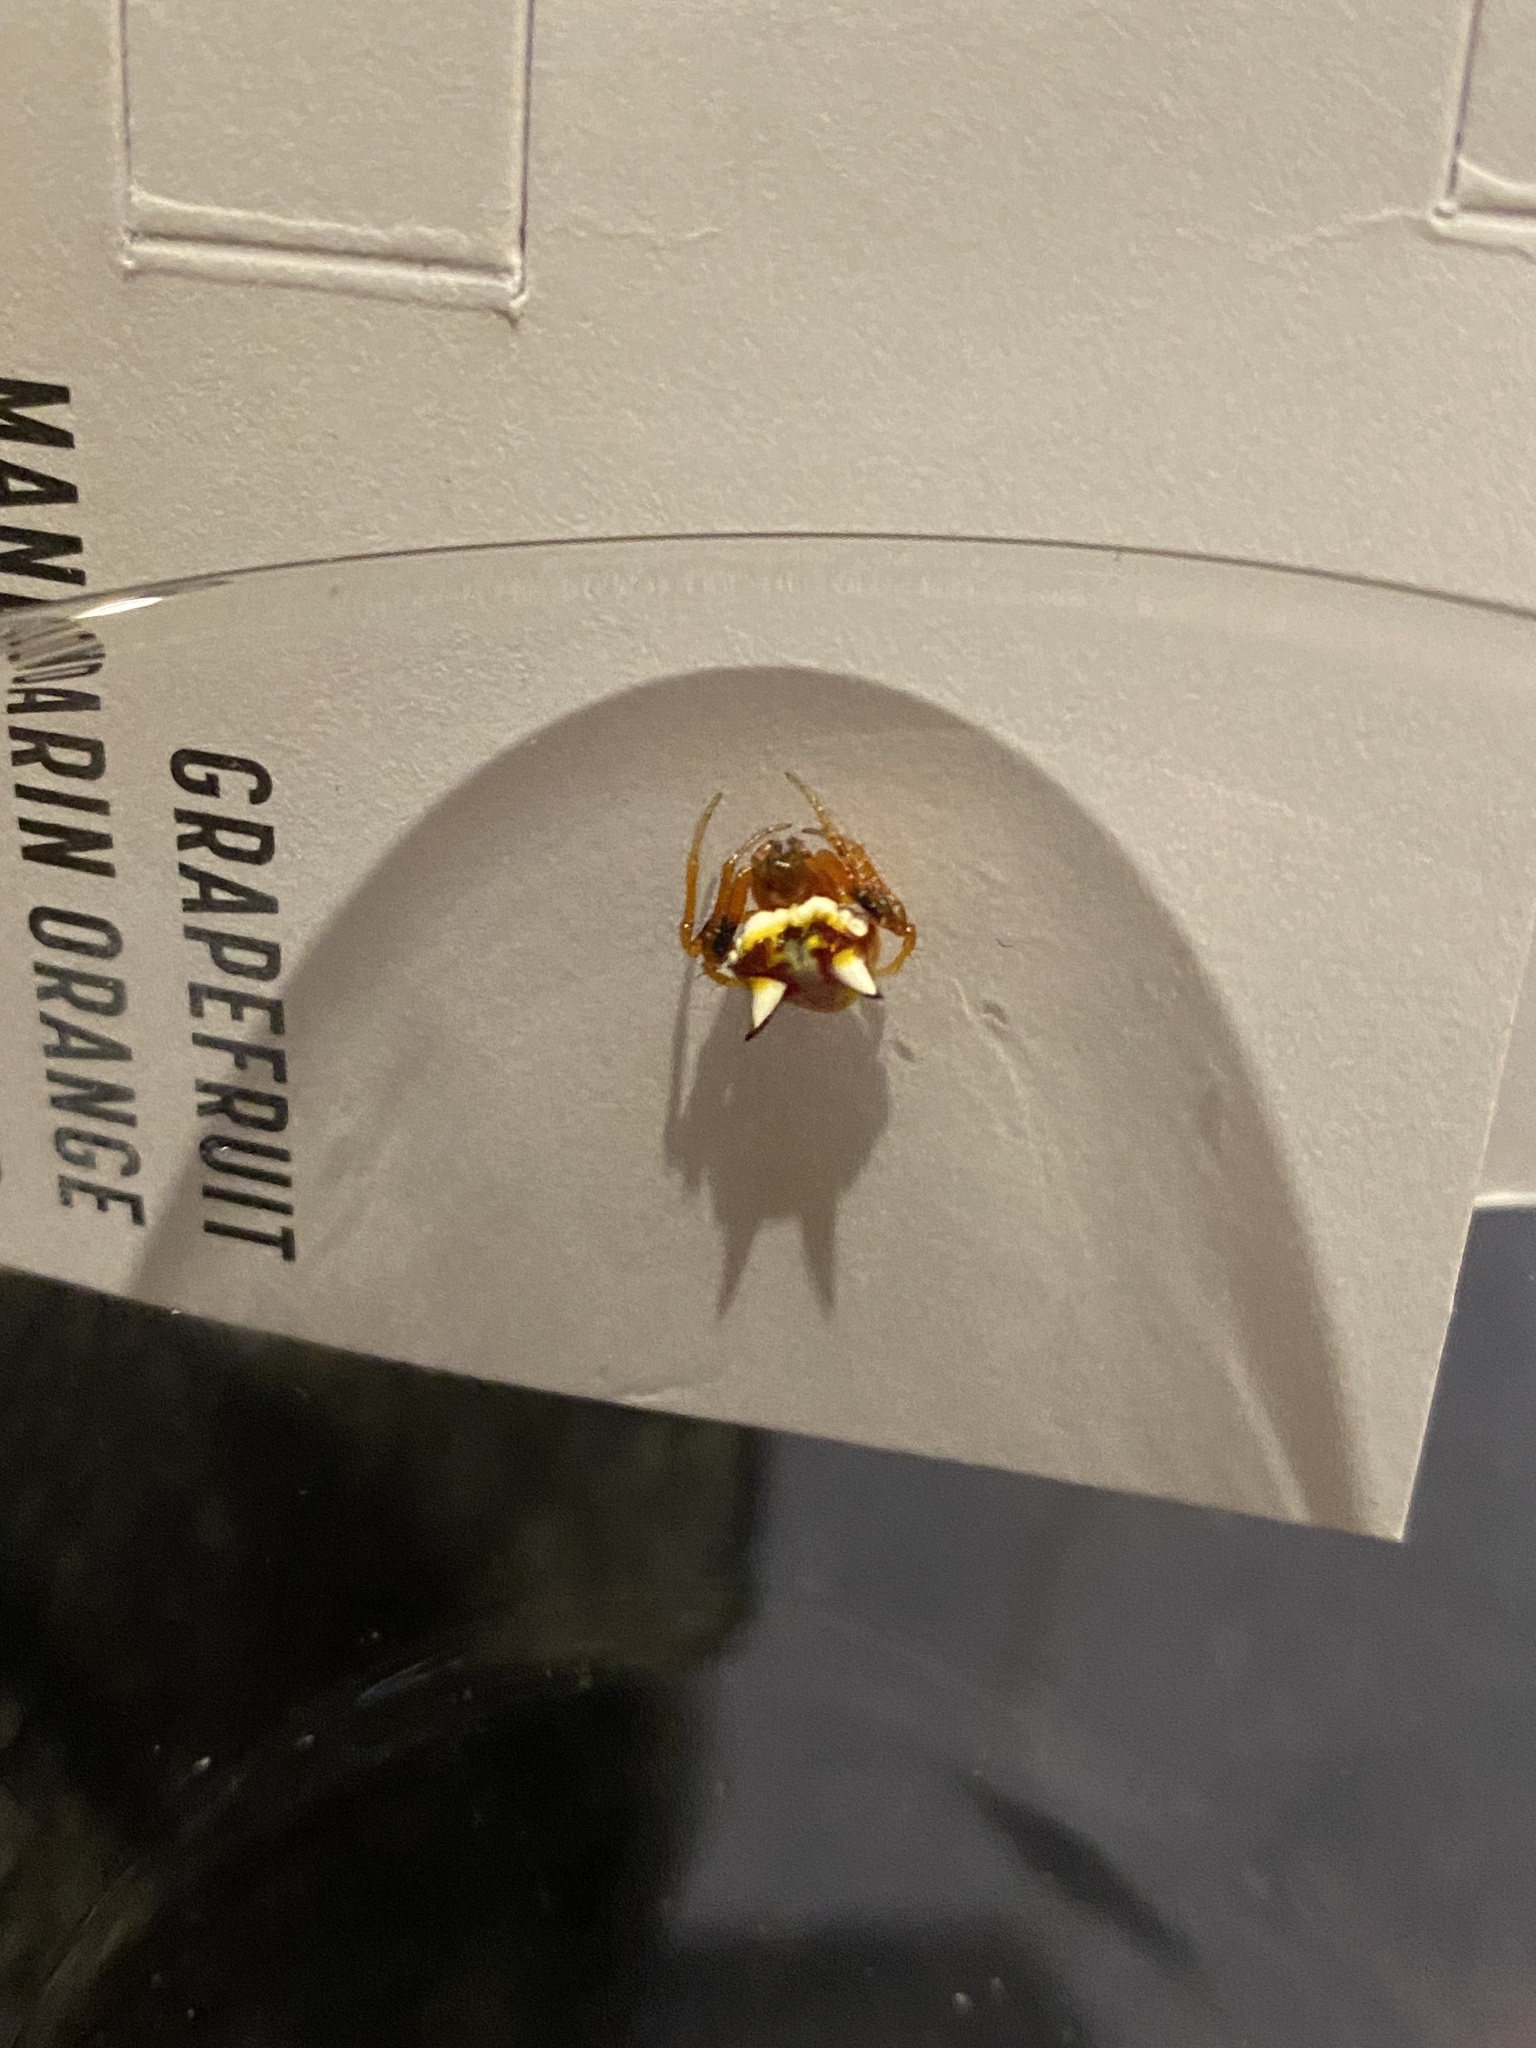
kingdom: Animalia
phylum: Arthropoda
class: Arachnida
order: Araneae
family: Araneidae
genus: Poecilopachys
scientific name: Poecilopachys australasia
